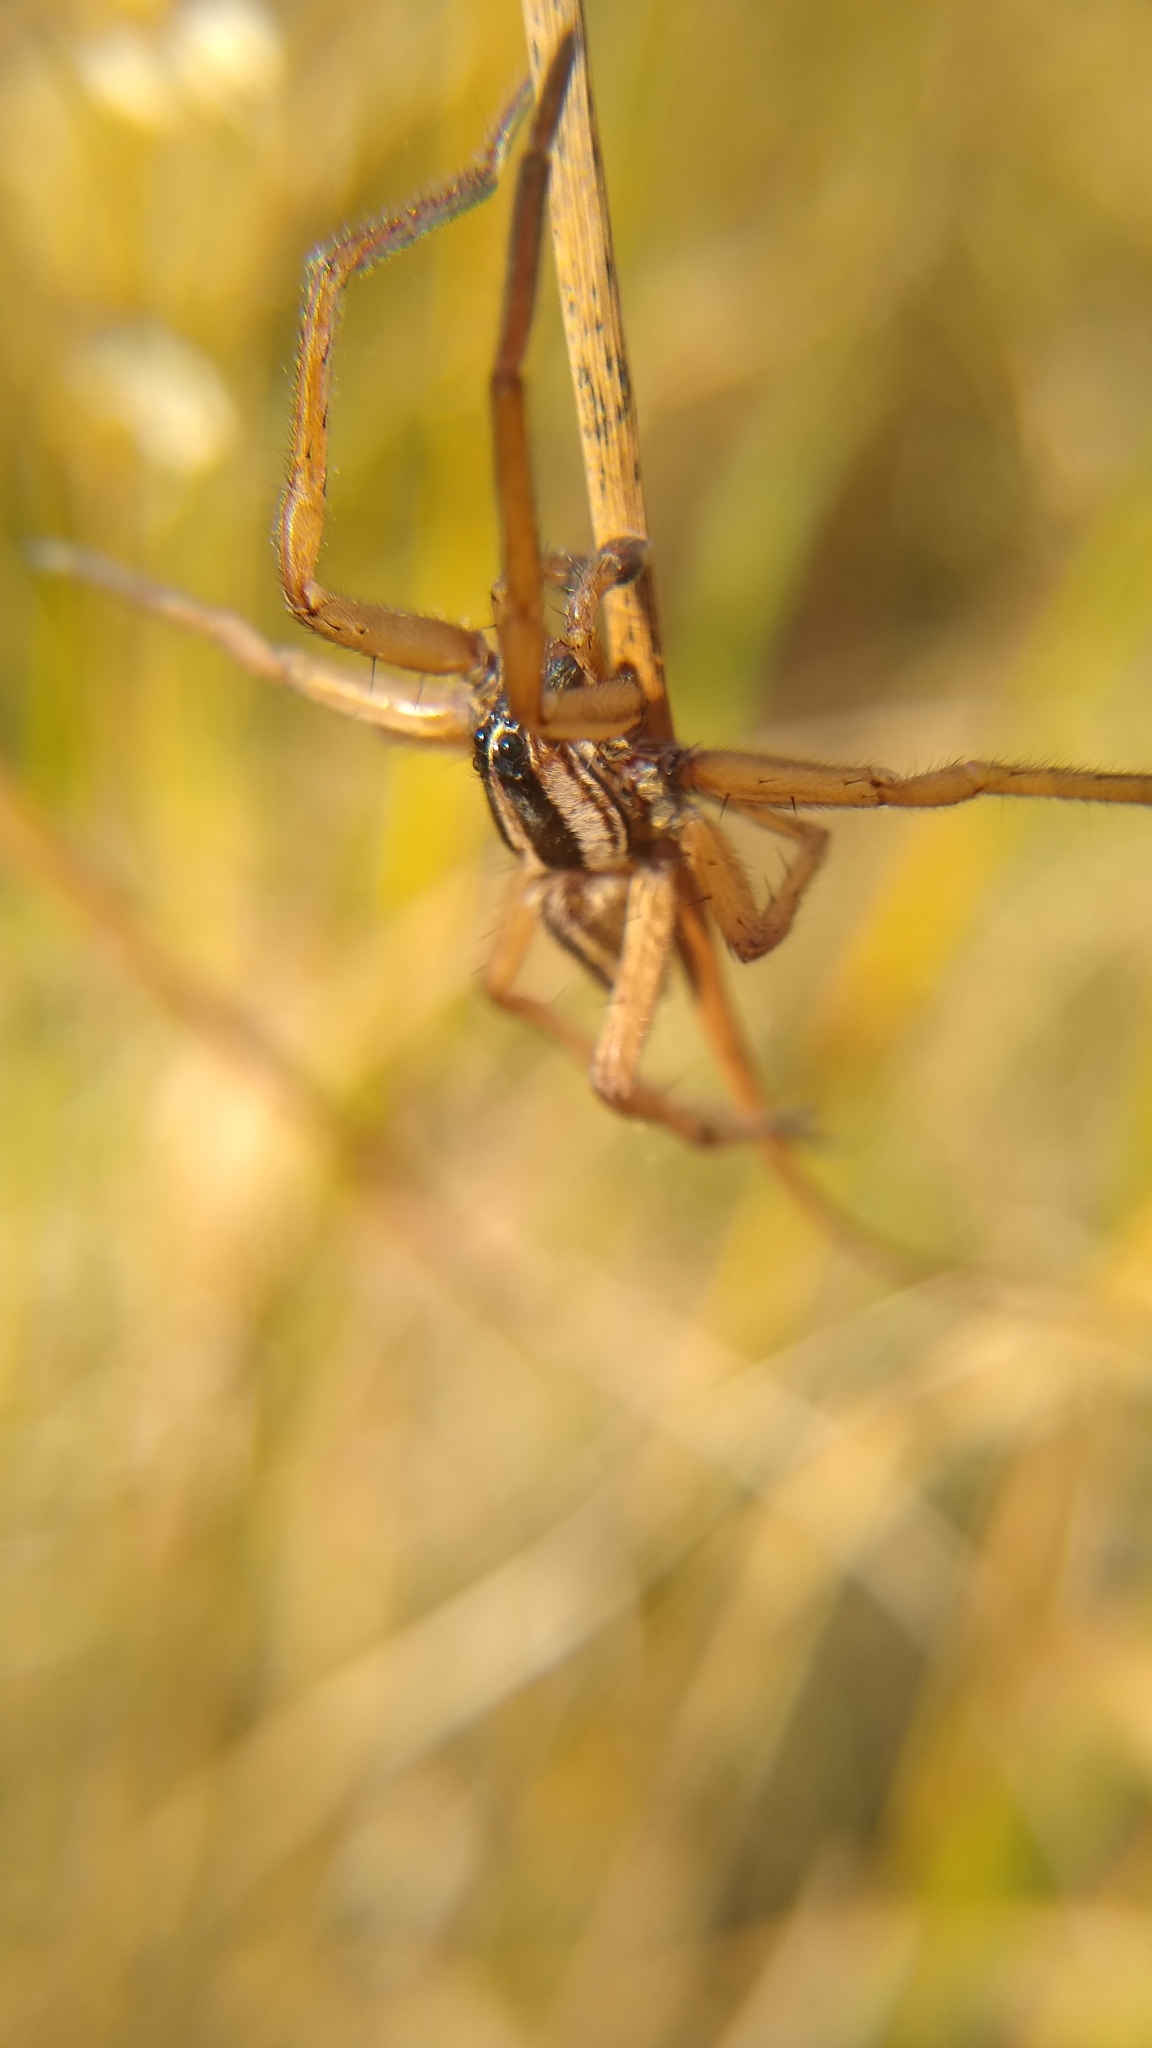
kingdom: Animalia
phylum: Arthropoda
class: Arachnida
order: Araneae
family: Lycosidae
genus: Rabidosa
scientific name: Rabidosa punctulata
